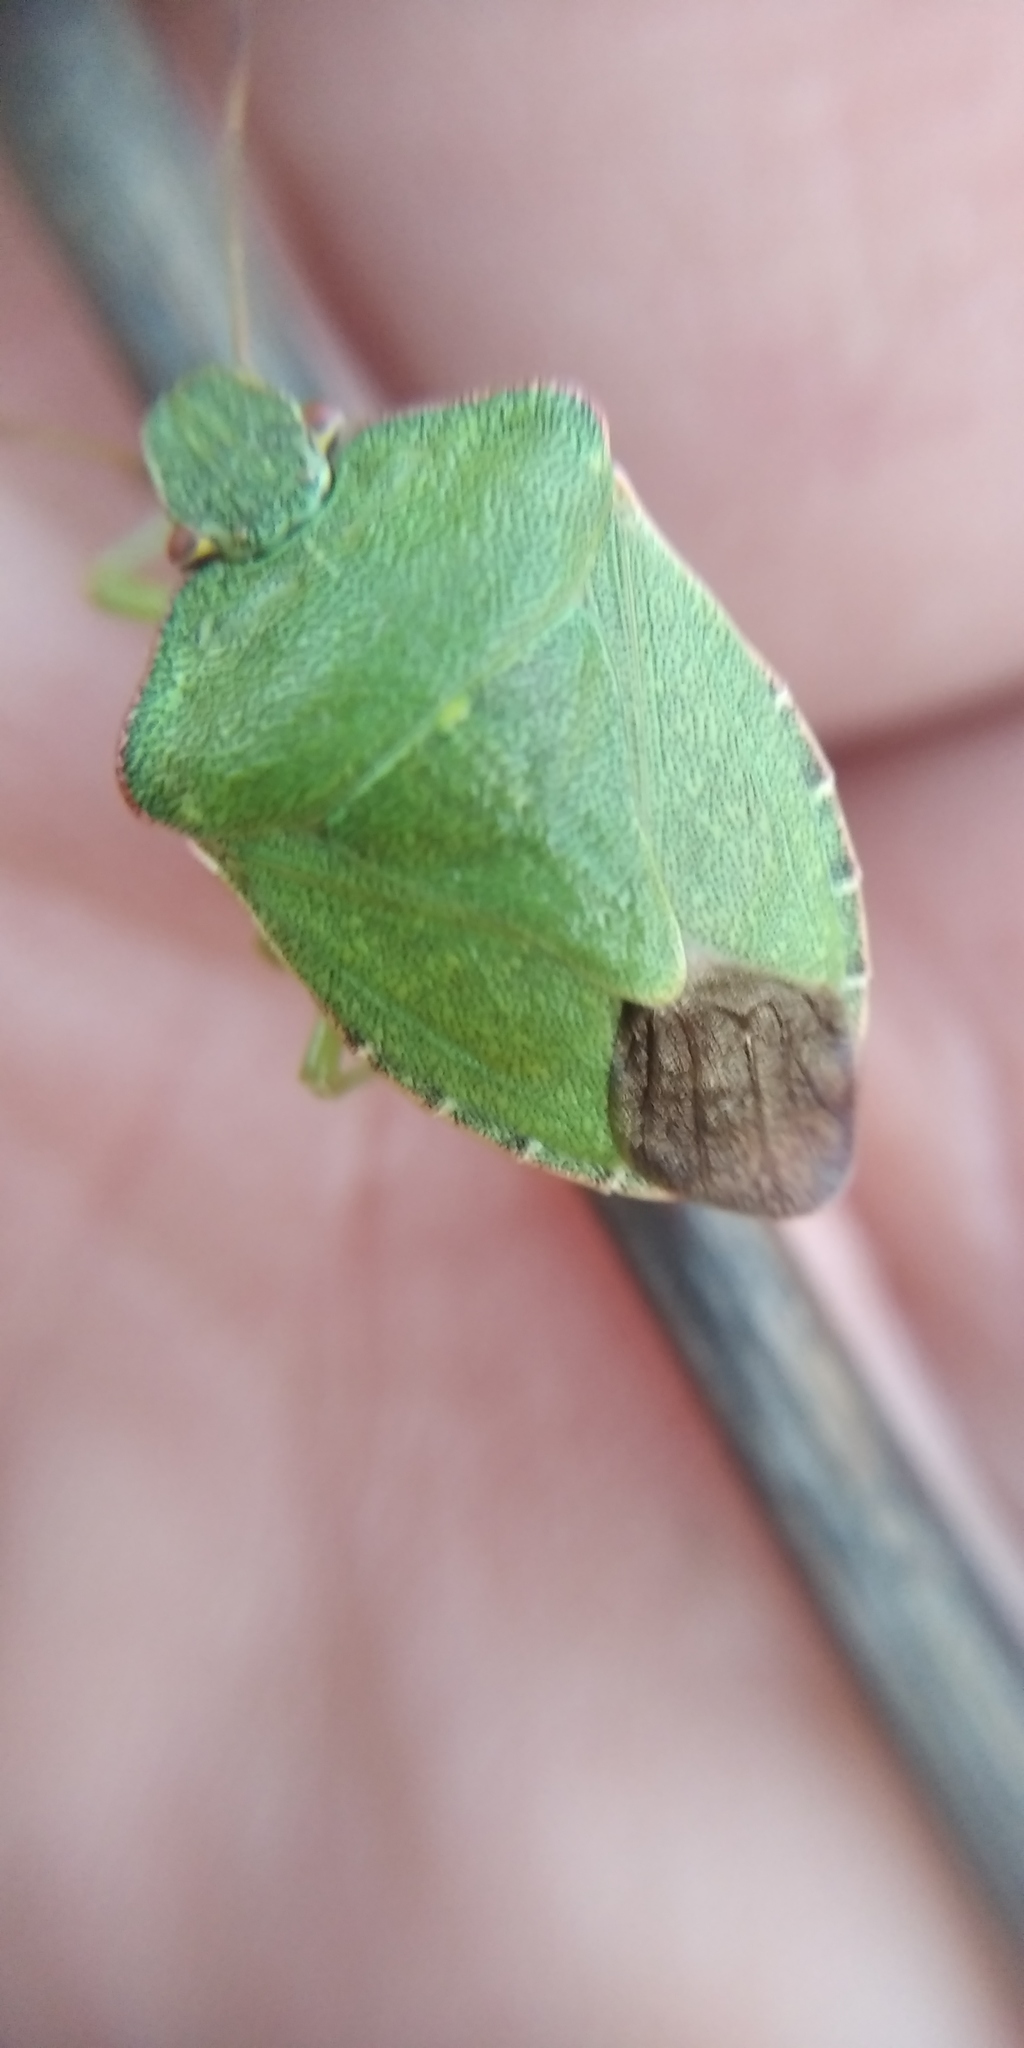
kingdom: Animalia
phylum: Arthropoda
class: Insecta
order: Hemiptera
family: Pentatomidae
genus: Palomena
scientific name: Palomena prasina
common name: Green shieldbug
